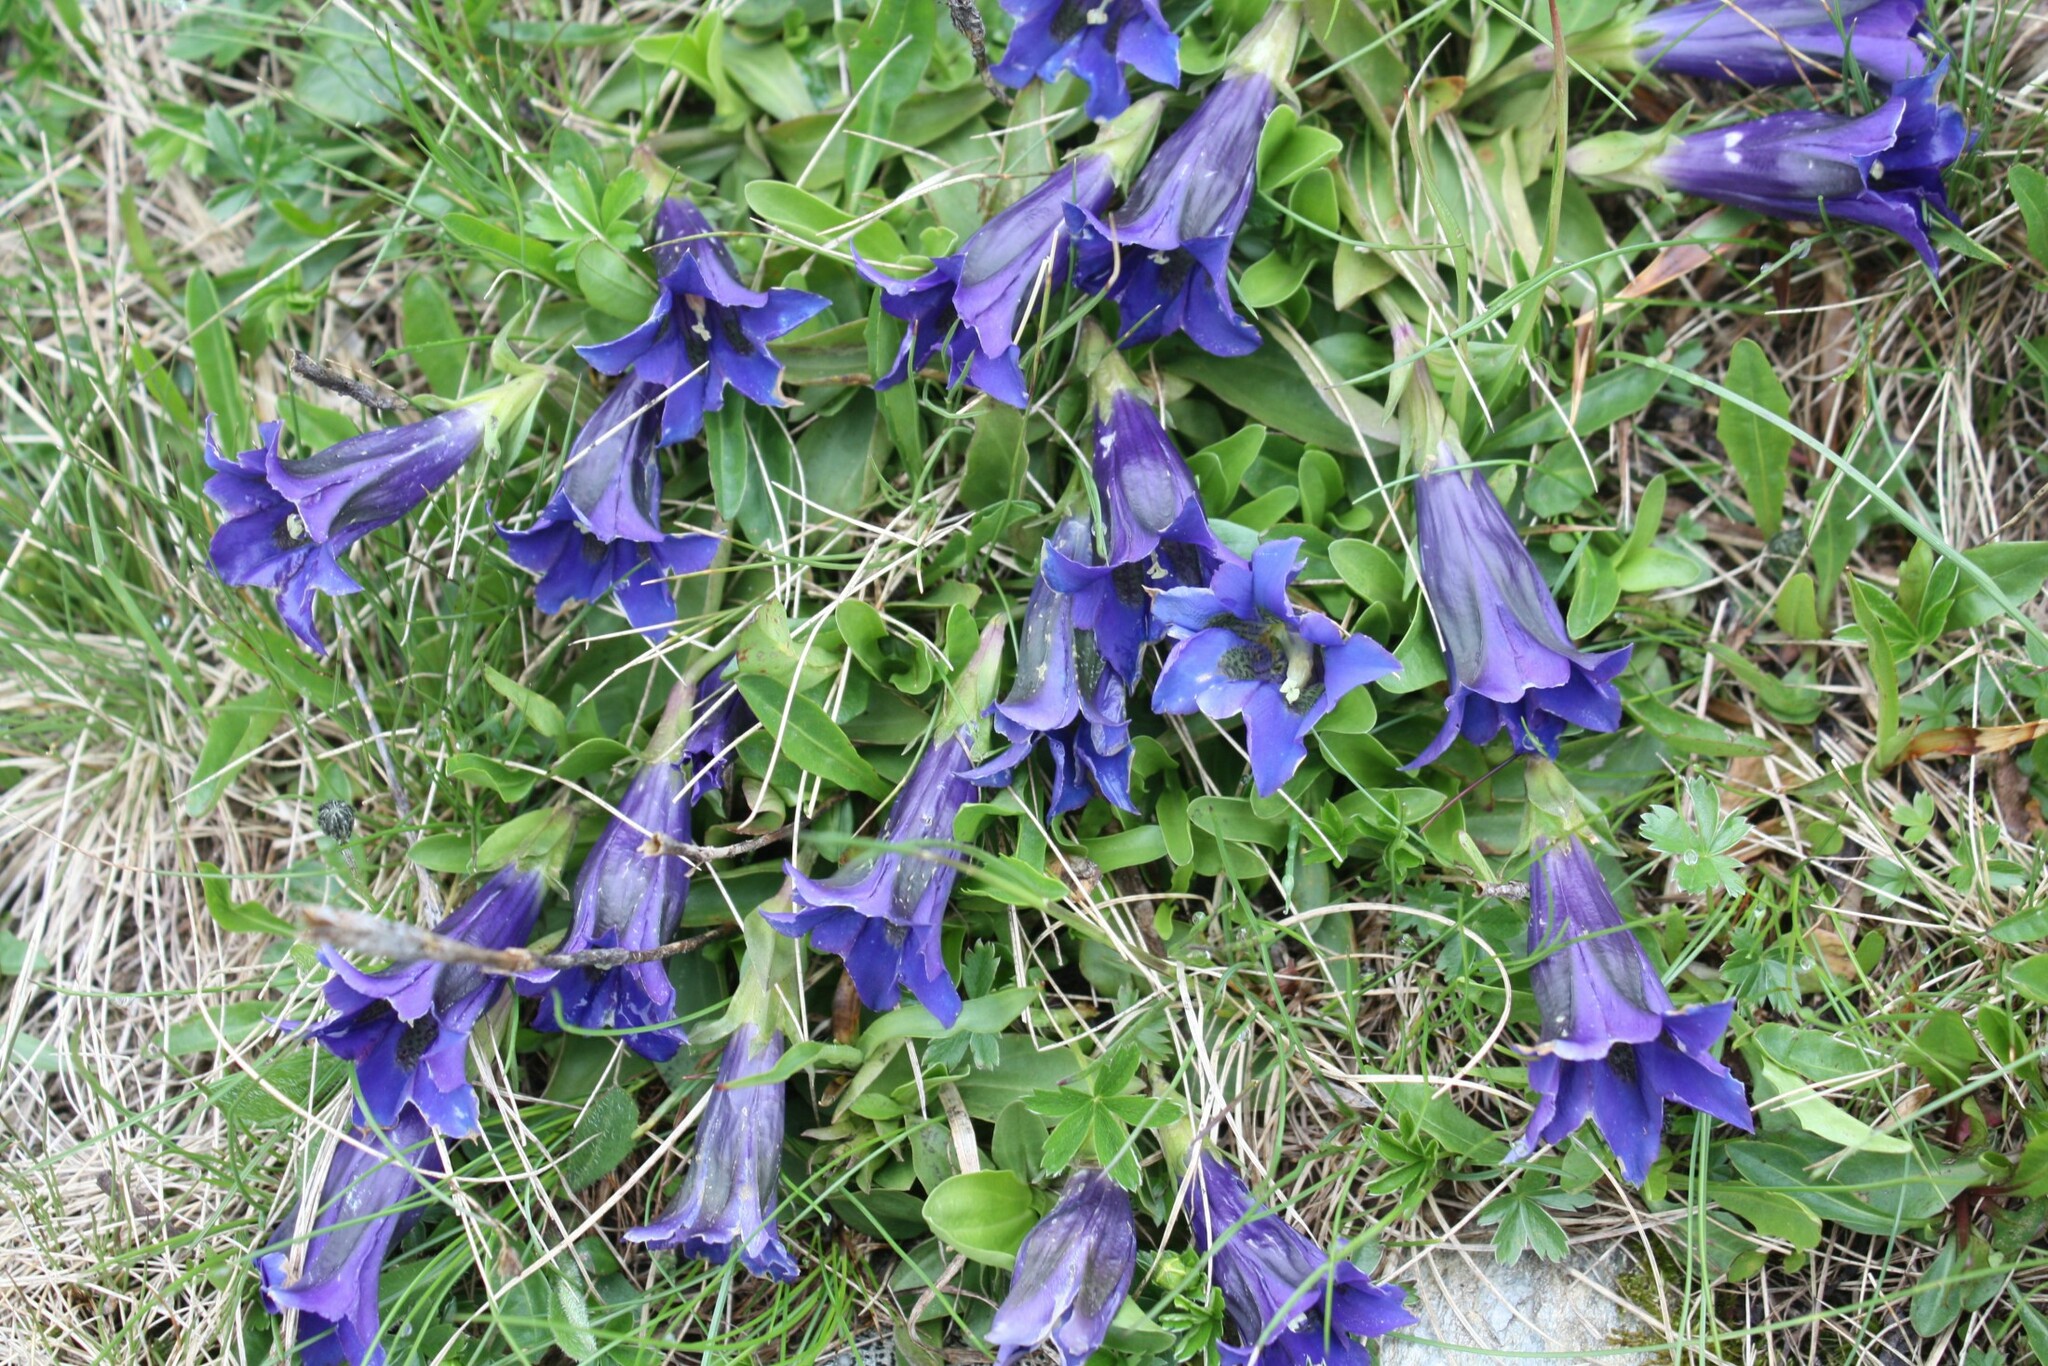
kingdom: Plantae
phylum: Tracheophyta
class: Magnoliopsida
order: Gentianales
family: Gentianaceae
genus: Gentiana
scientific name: Gentiana acaulis
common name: Trumpet gentian
